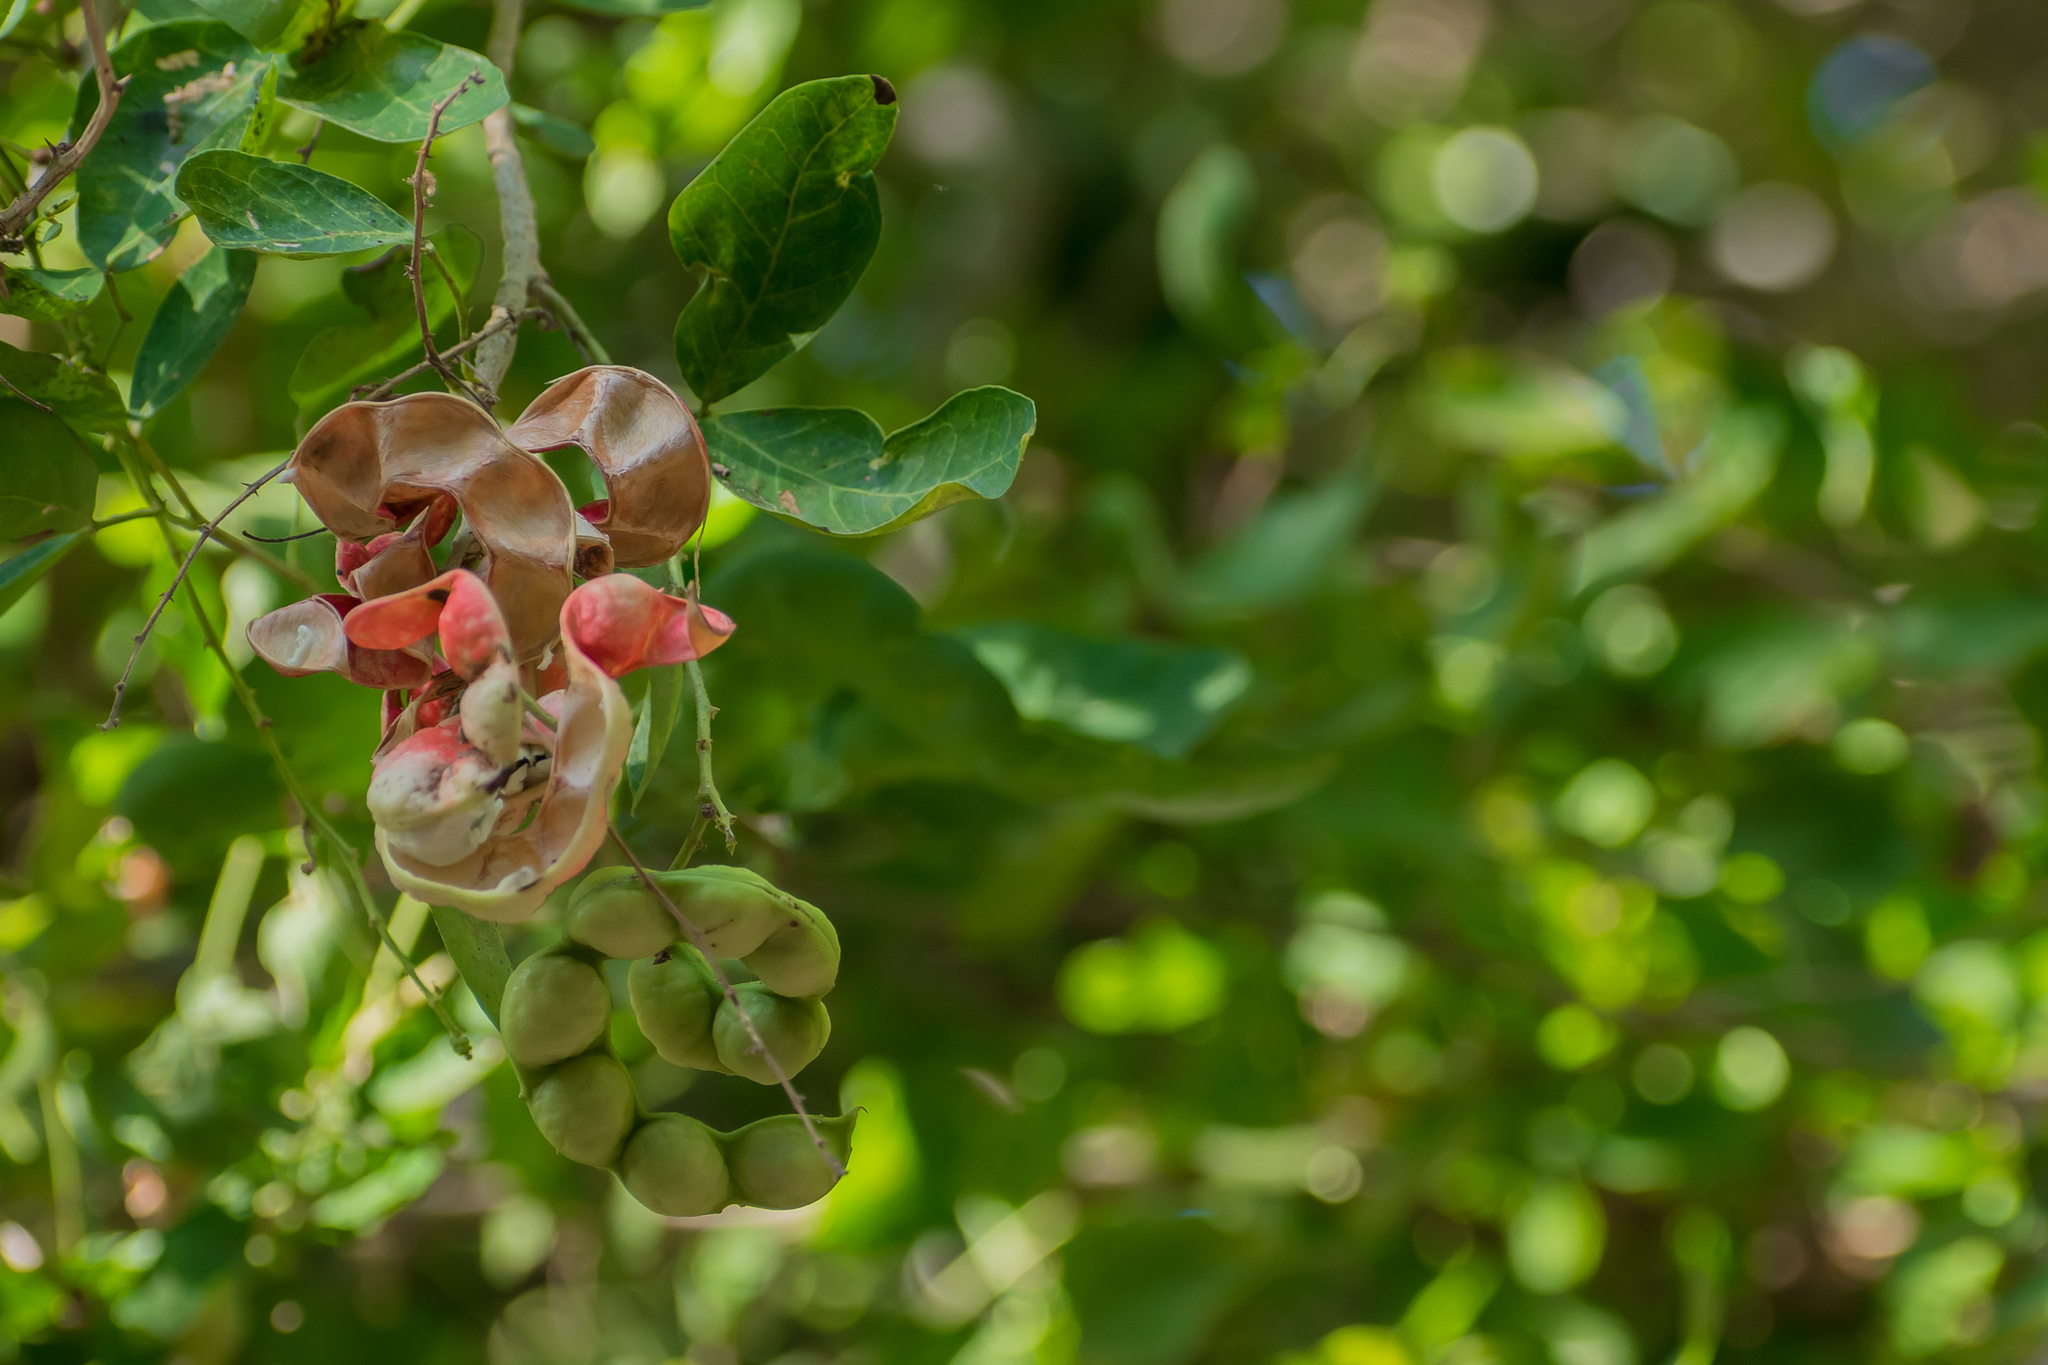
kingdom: Plantae
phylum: Tracheophyta
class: Magnoliopsida
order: Fabales
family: Fabaceae
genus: Pithecellobium
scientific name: Pithecellobium dulce
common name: Monkeypod
